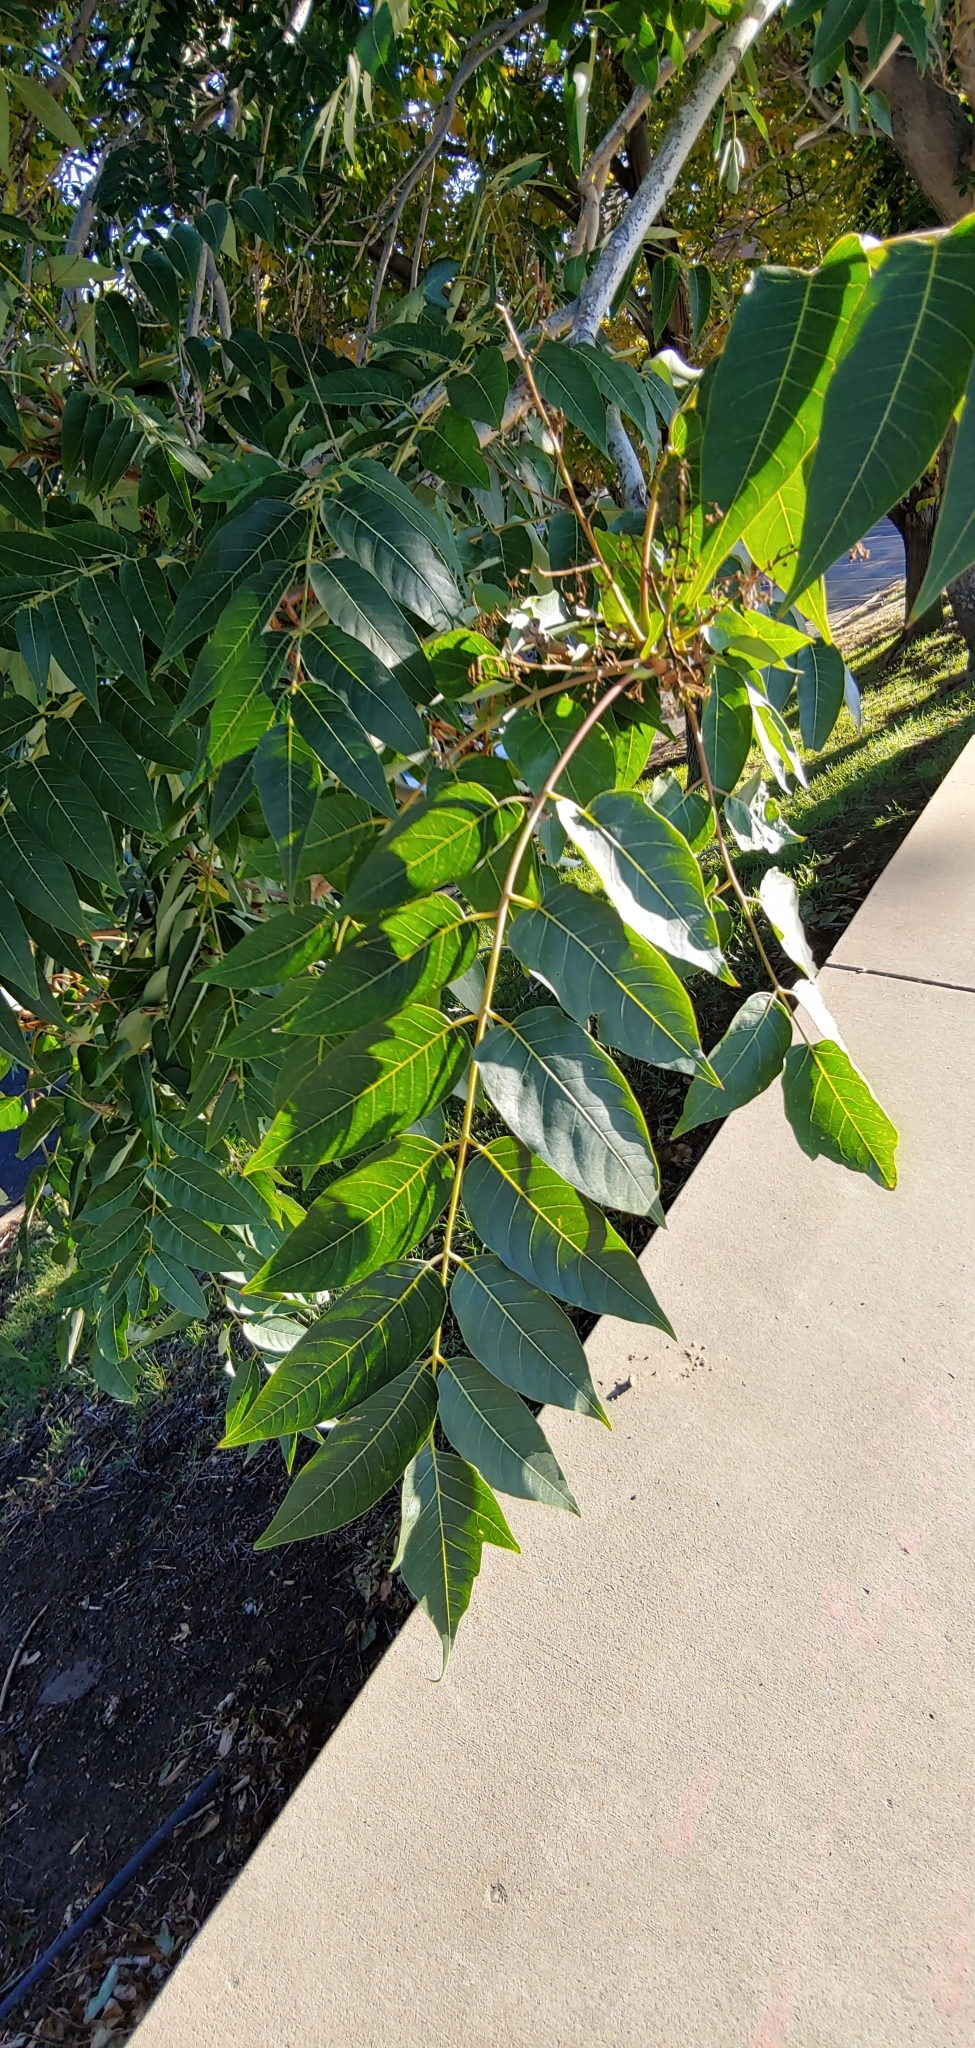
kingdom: Plantae
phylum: Tracheophyta
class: Magnoliopsida
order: Sapindales
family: Simaroubaceae
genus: Ailanthus
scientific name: Ailanthus altissima
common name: Tree-of-heaven
